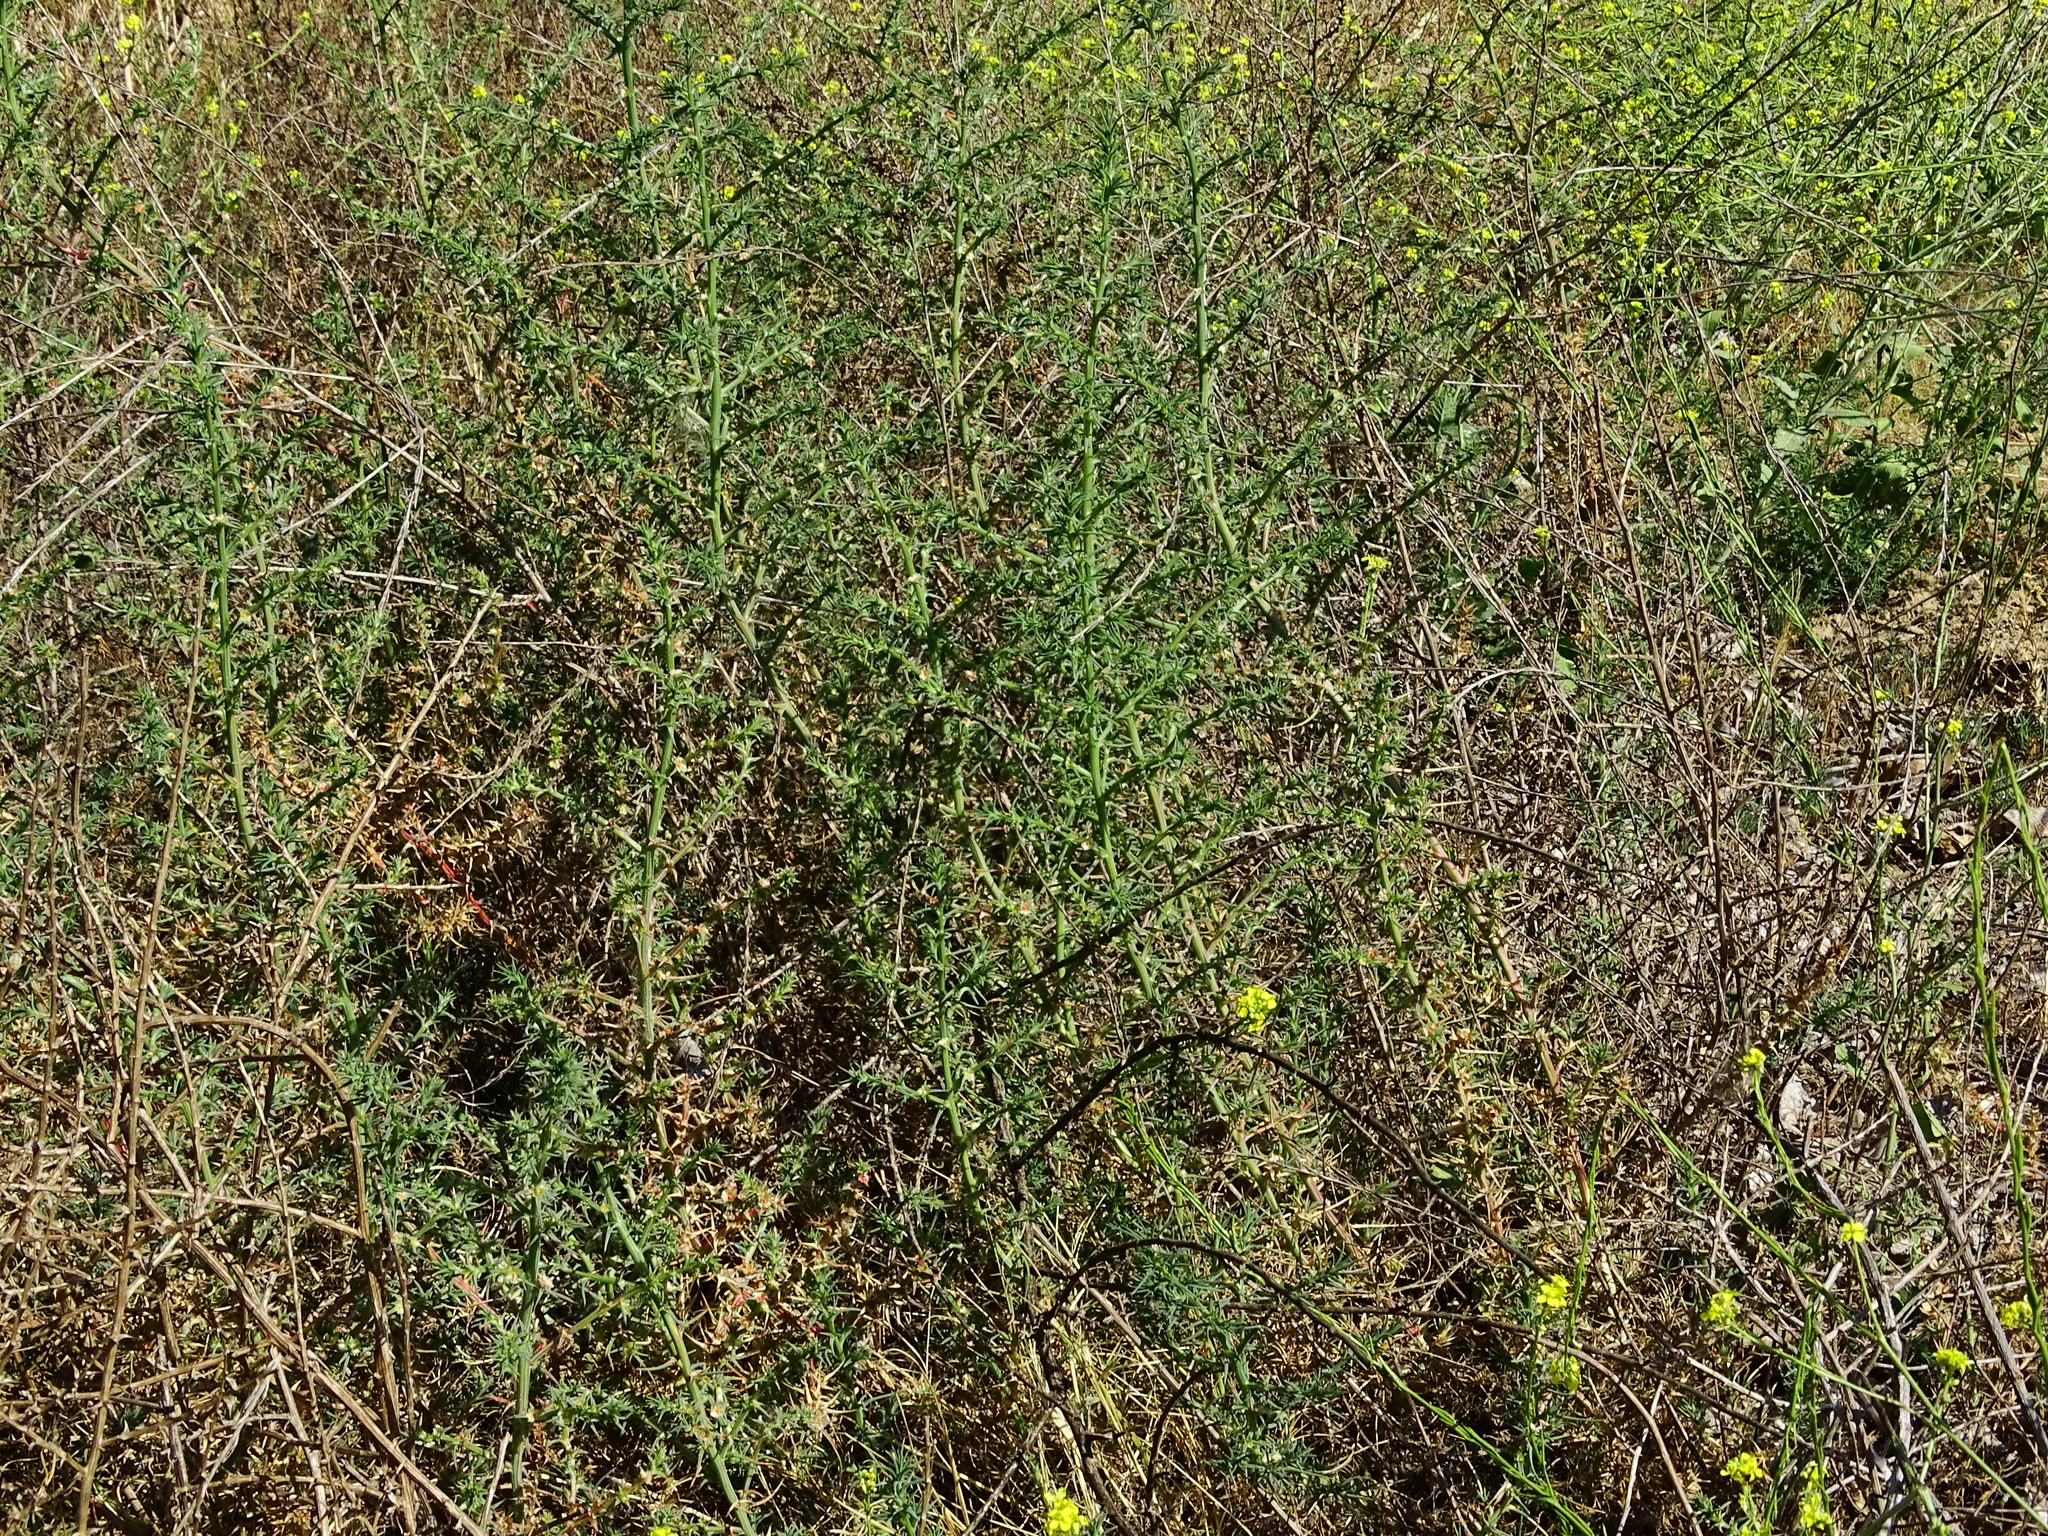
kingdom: Plantae
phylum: Tracheophyta
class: Magnoliopsida
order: Caryophyllales
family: Amaranthaceae
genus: Salsola
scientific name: Salsola
